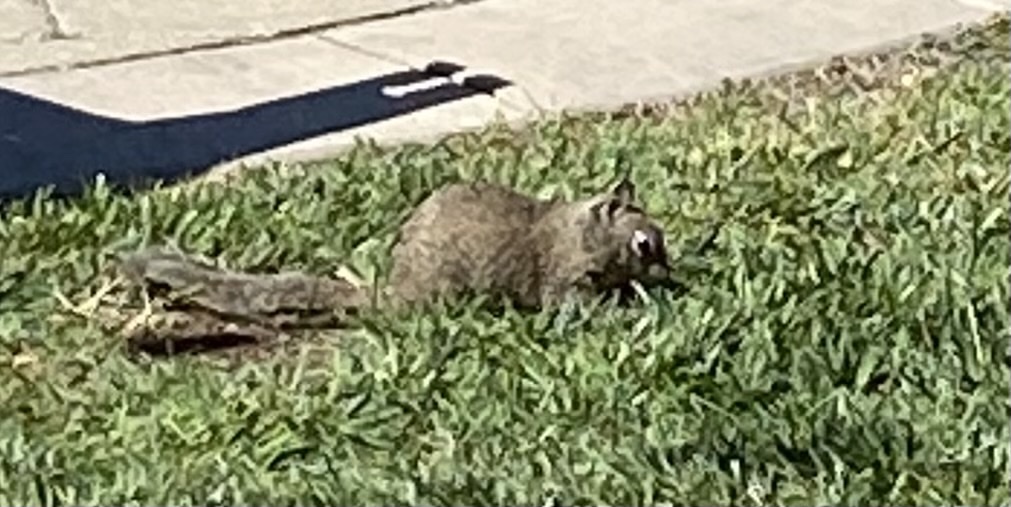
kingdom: Animalia
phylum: Chordata
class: Mammalia
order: Rodentia
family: Sciuridae
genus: Otospermophilus
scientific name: Otospermophilus beecheyi
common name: California ground squirrel
